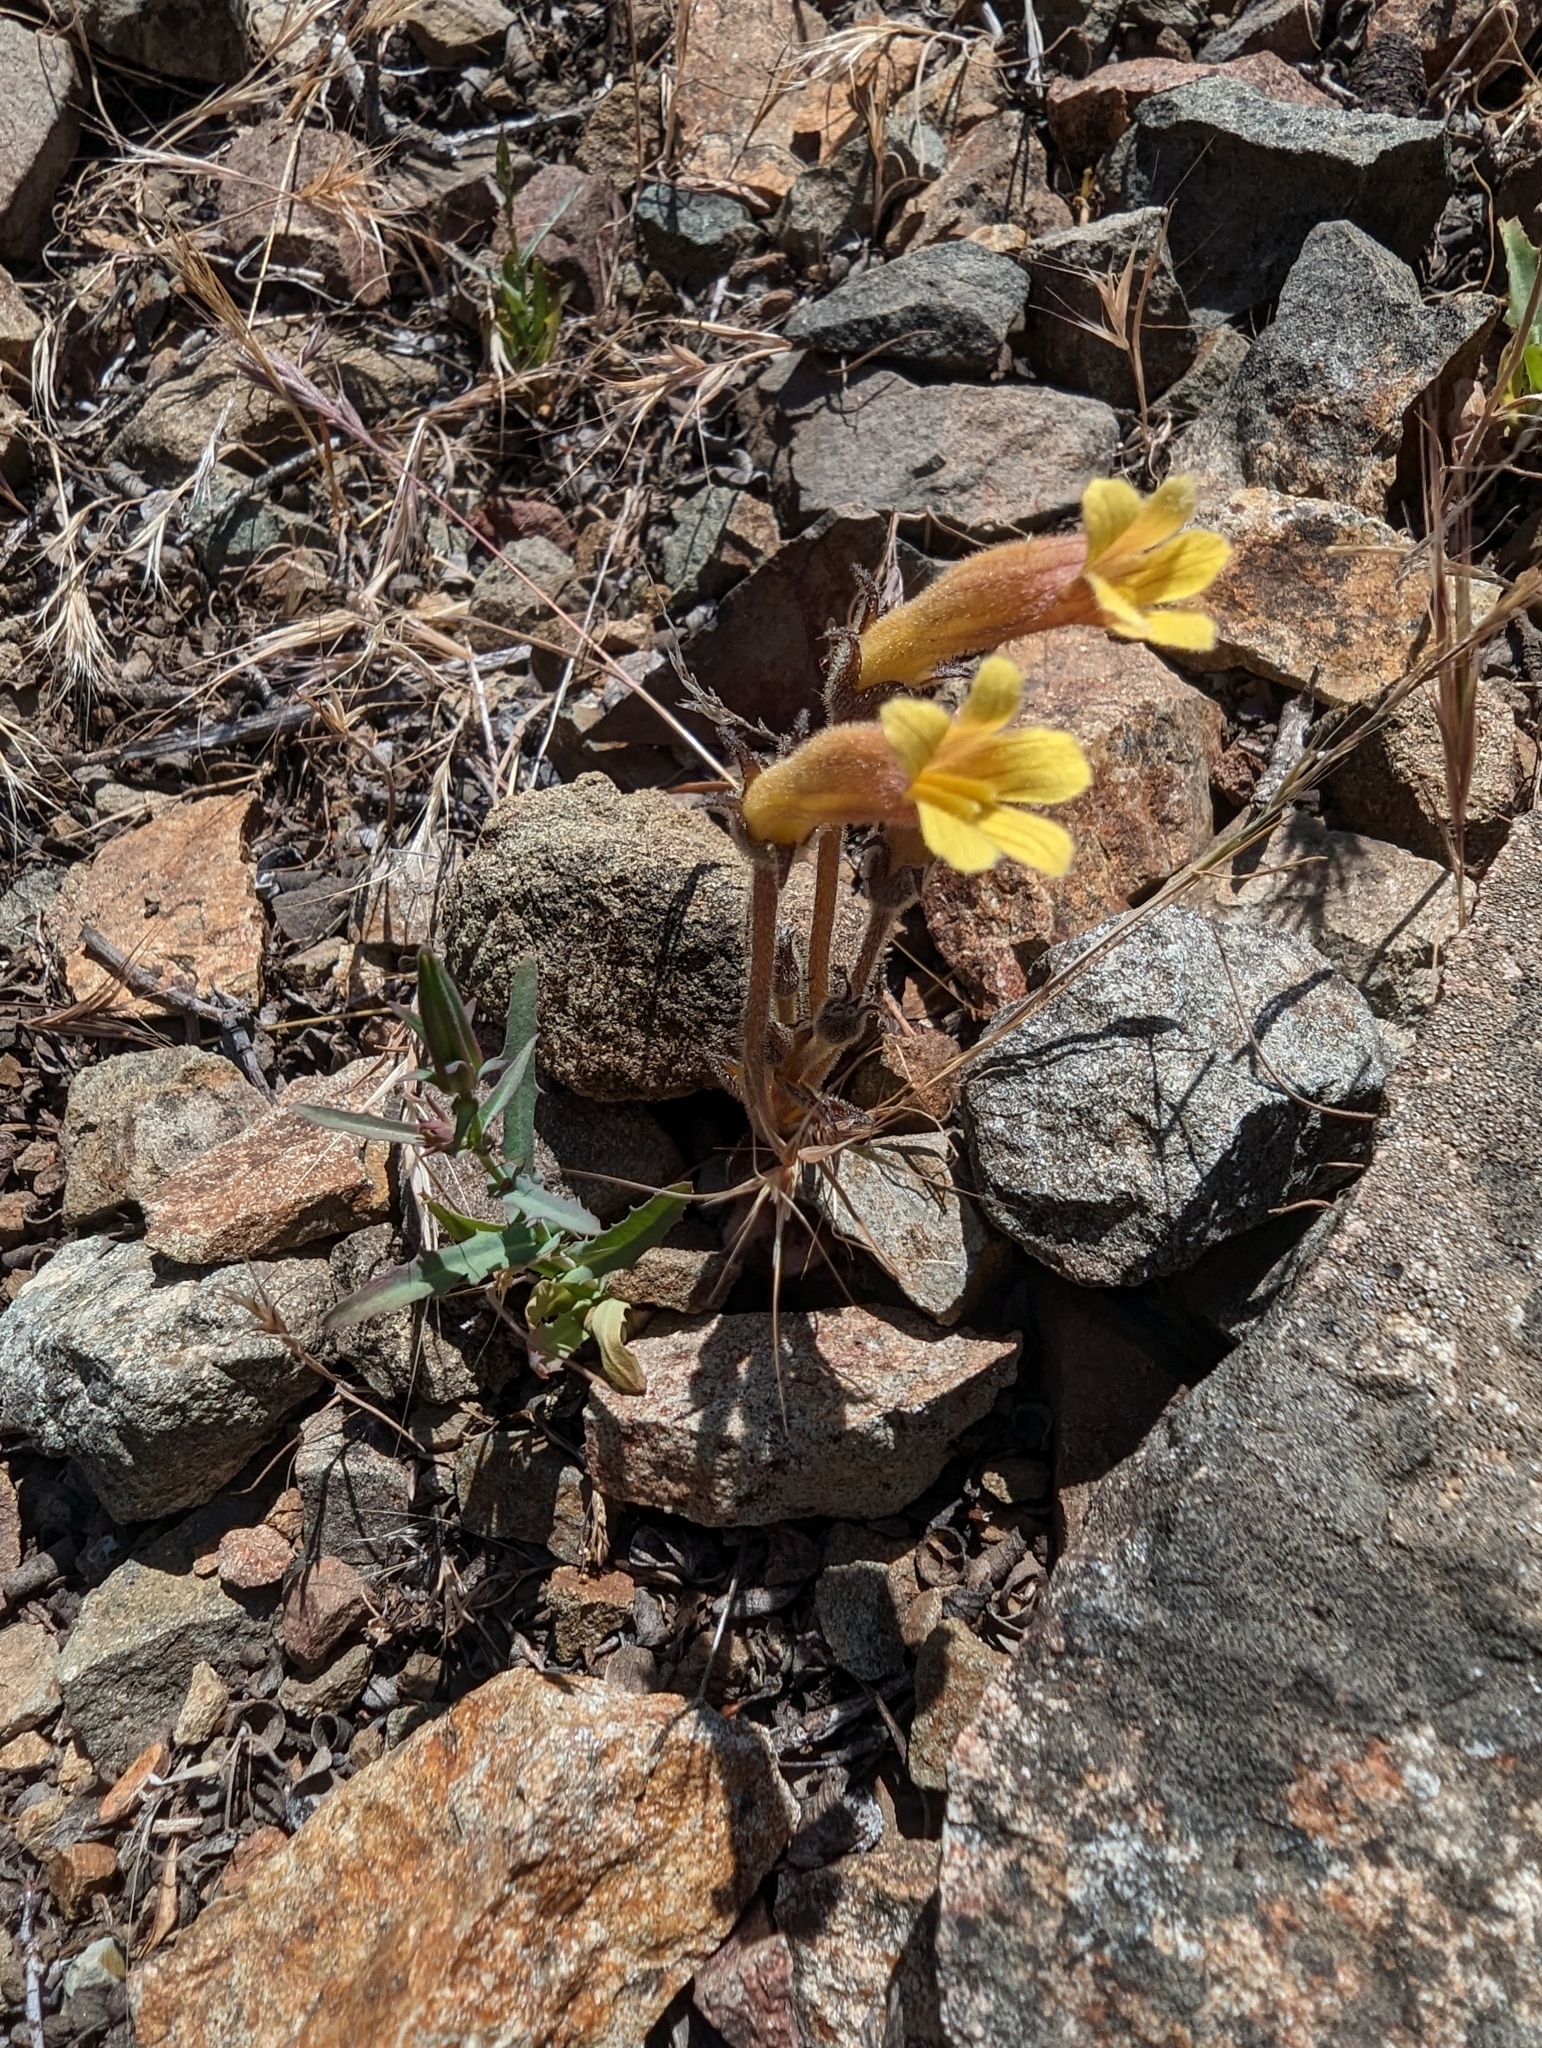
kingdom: Plantae
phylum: Tracheophyta
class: Magnoliopsida
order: Lamiales
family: Orobanchaceae
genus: Aphyllon
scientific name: Aphyllon franciscanum
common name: San francisco broomrape
